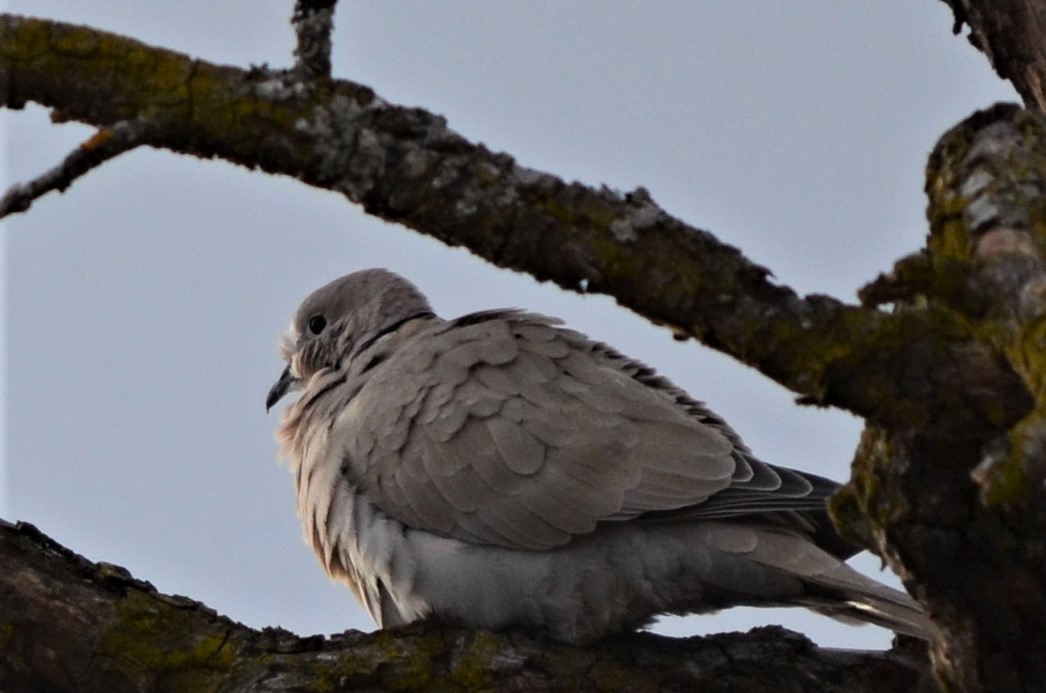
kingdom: Animalia
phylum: Chordata
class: Aves
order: Columbiformes
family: Columbidae
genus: Streptopelia
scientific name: Streptopelia decaocto
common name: Eurasian collared dove
